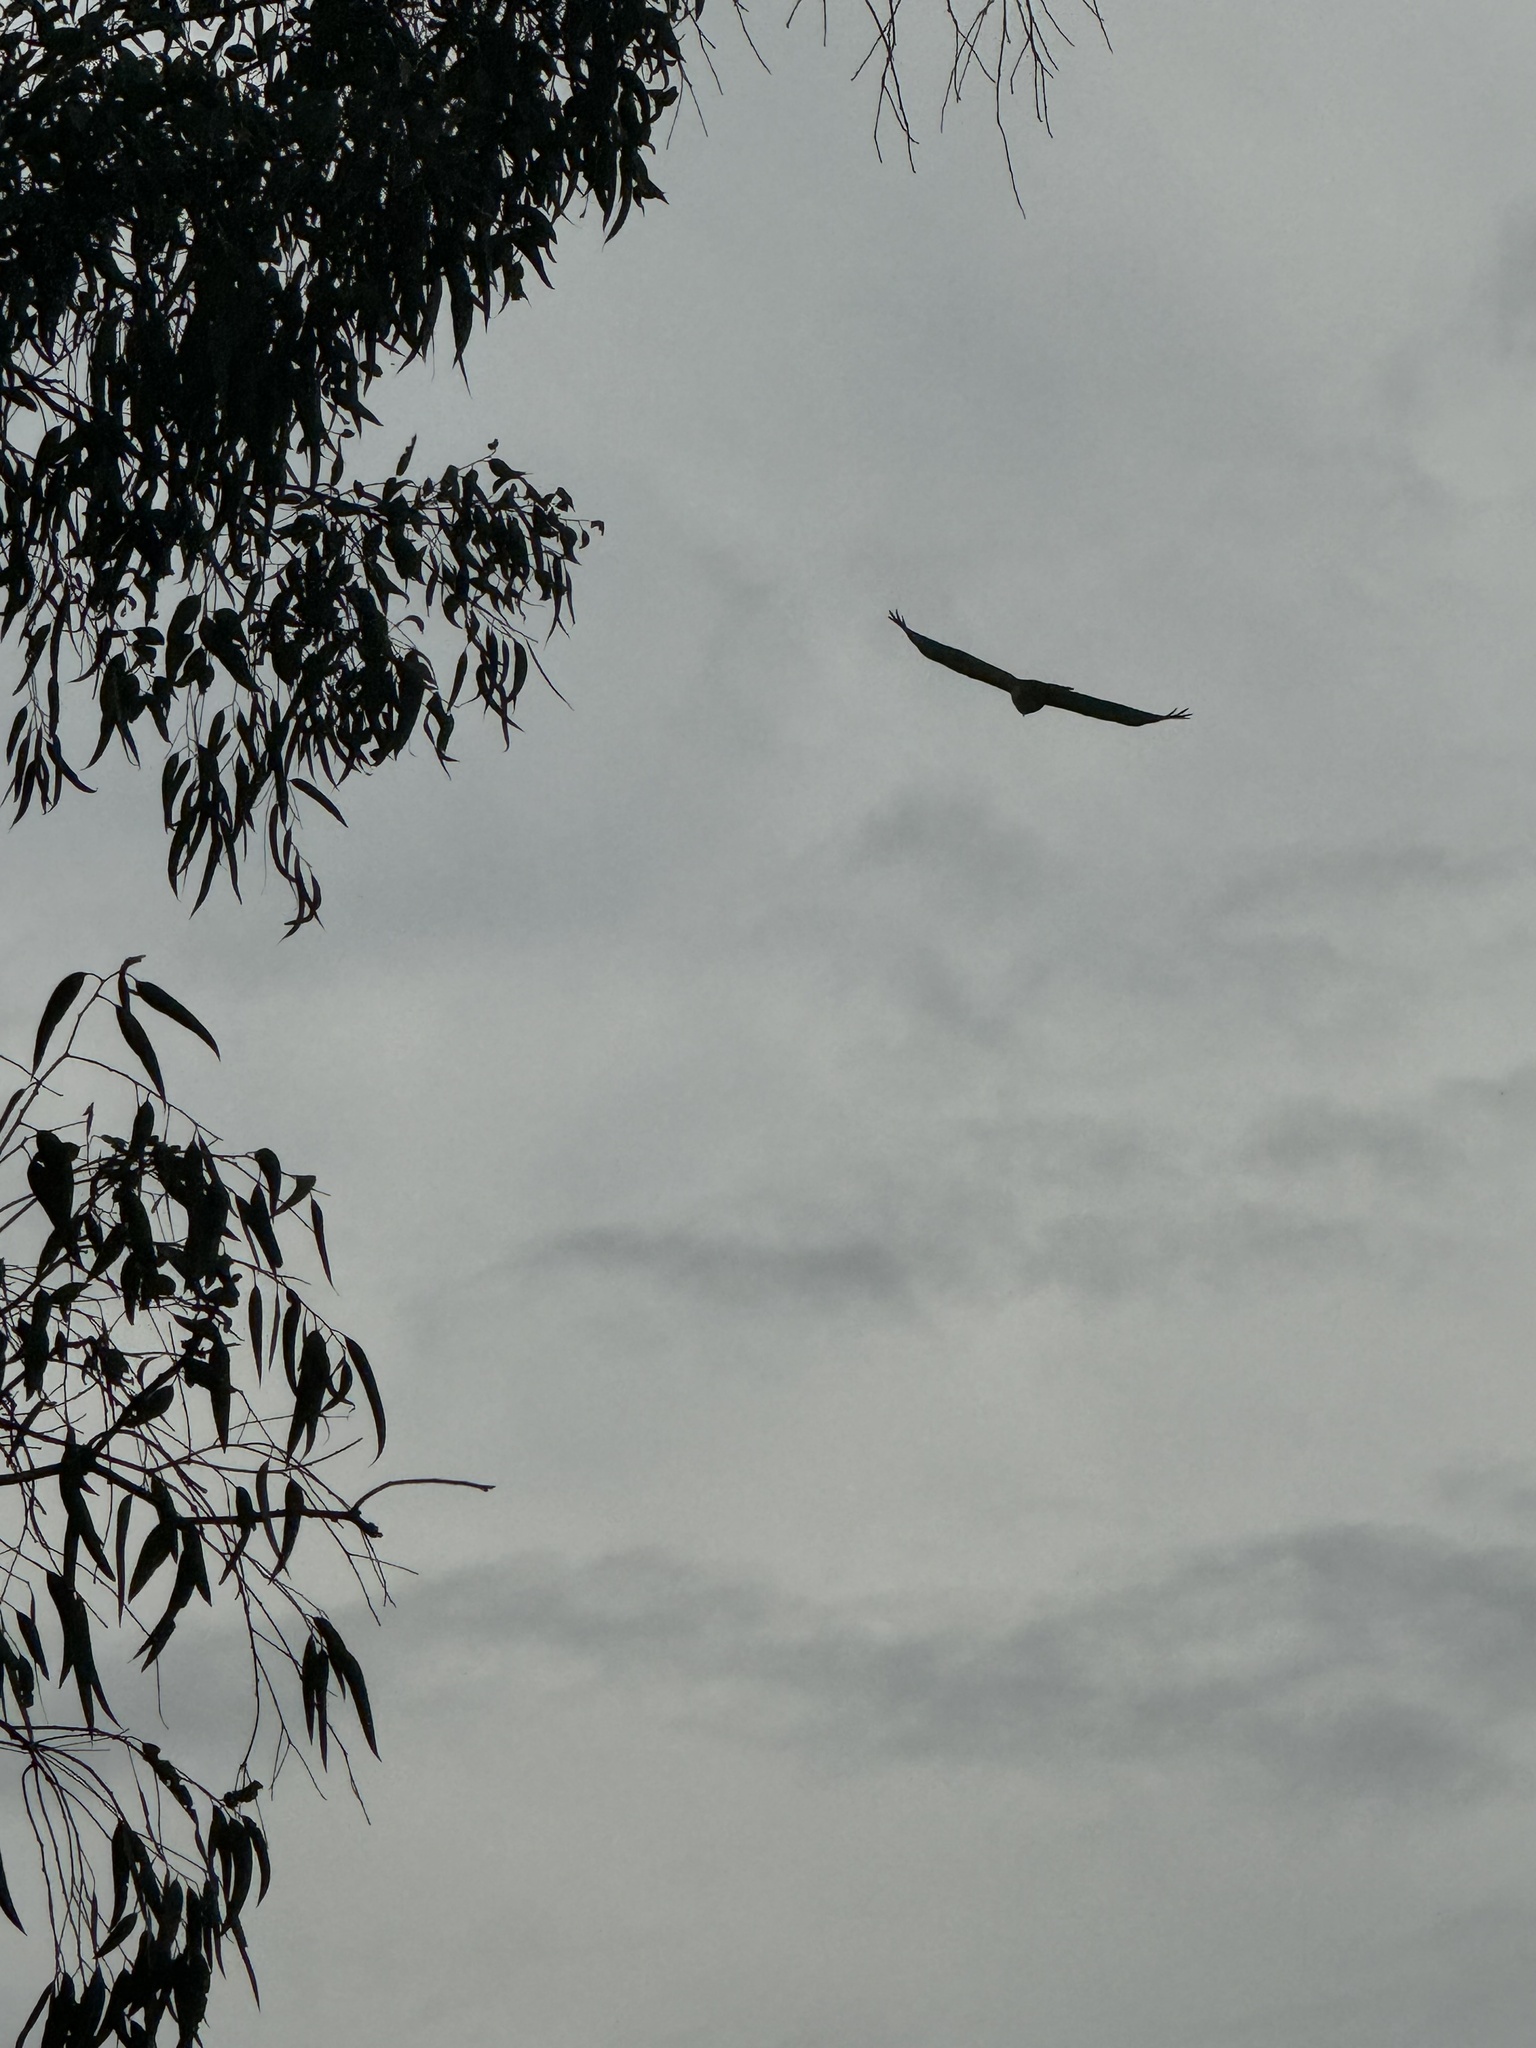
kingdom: Animalia
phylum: Chordata
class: Aves
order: Accipitriformes
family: Accipitridae
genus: Buteo
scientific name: Buteo jamaicensis
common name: Red-tailed hawk
